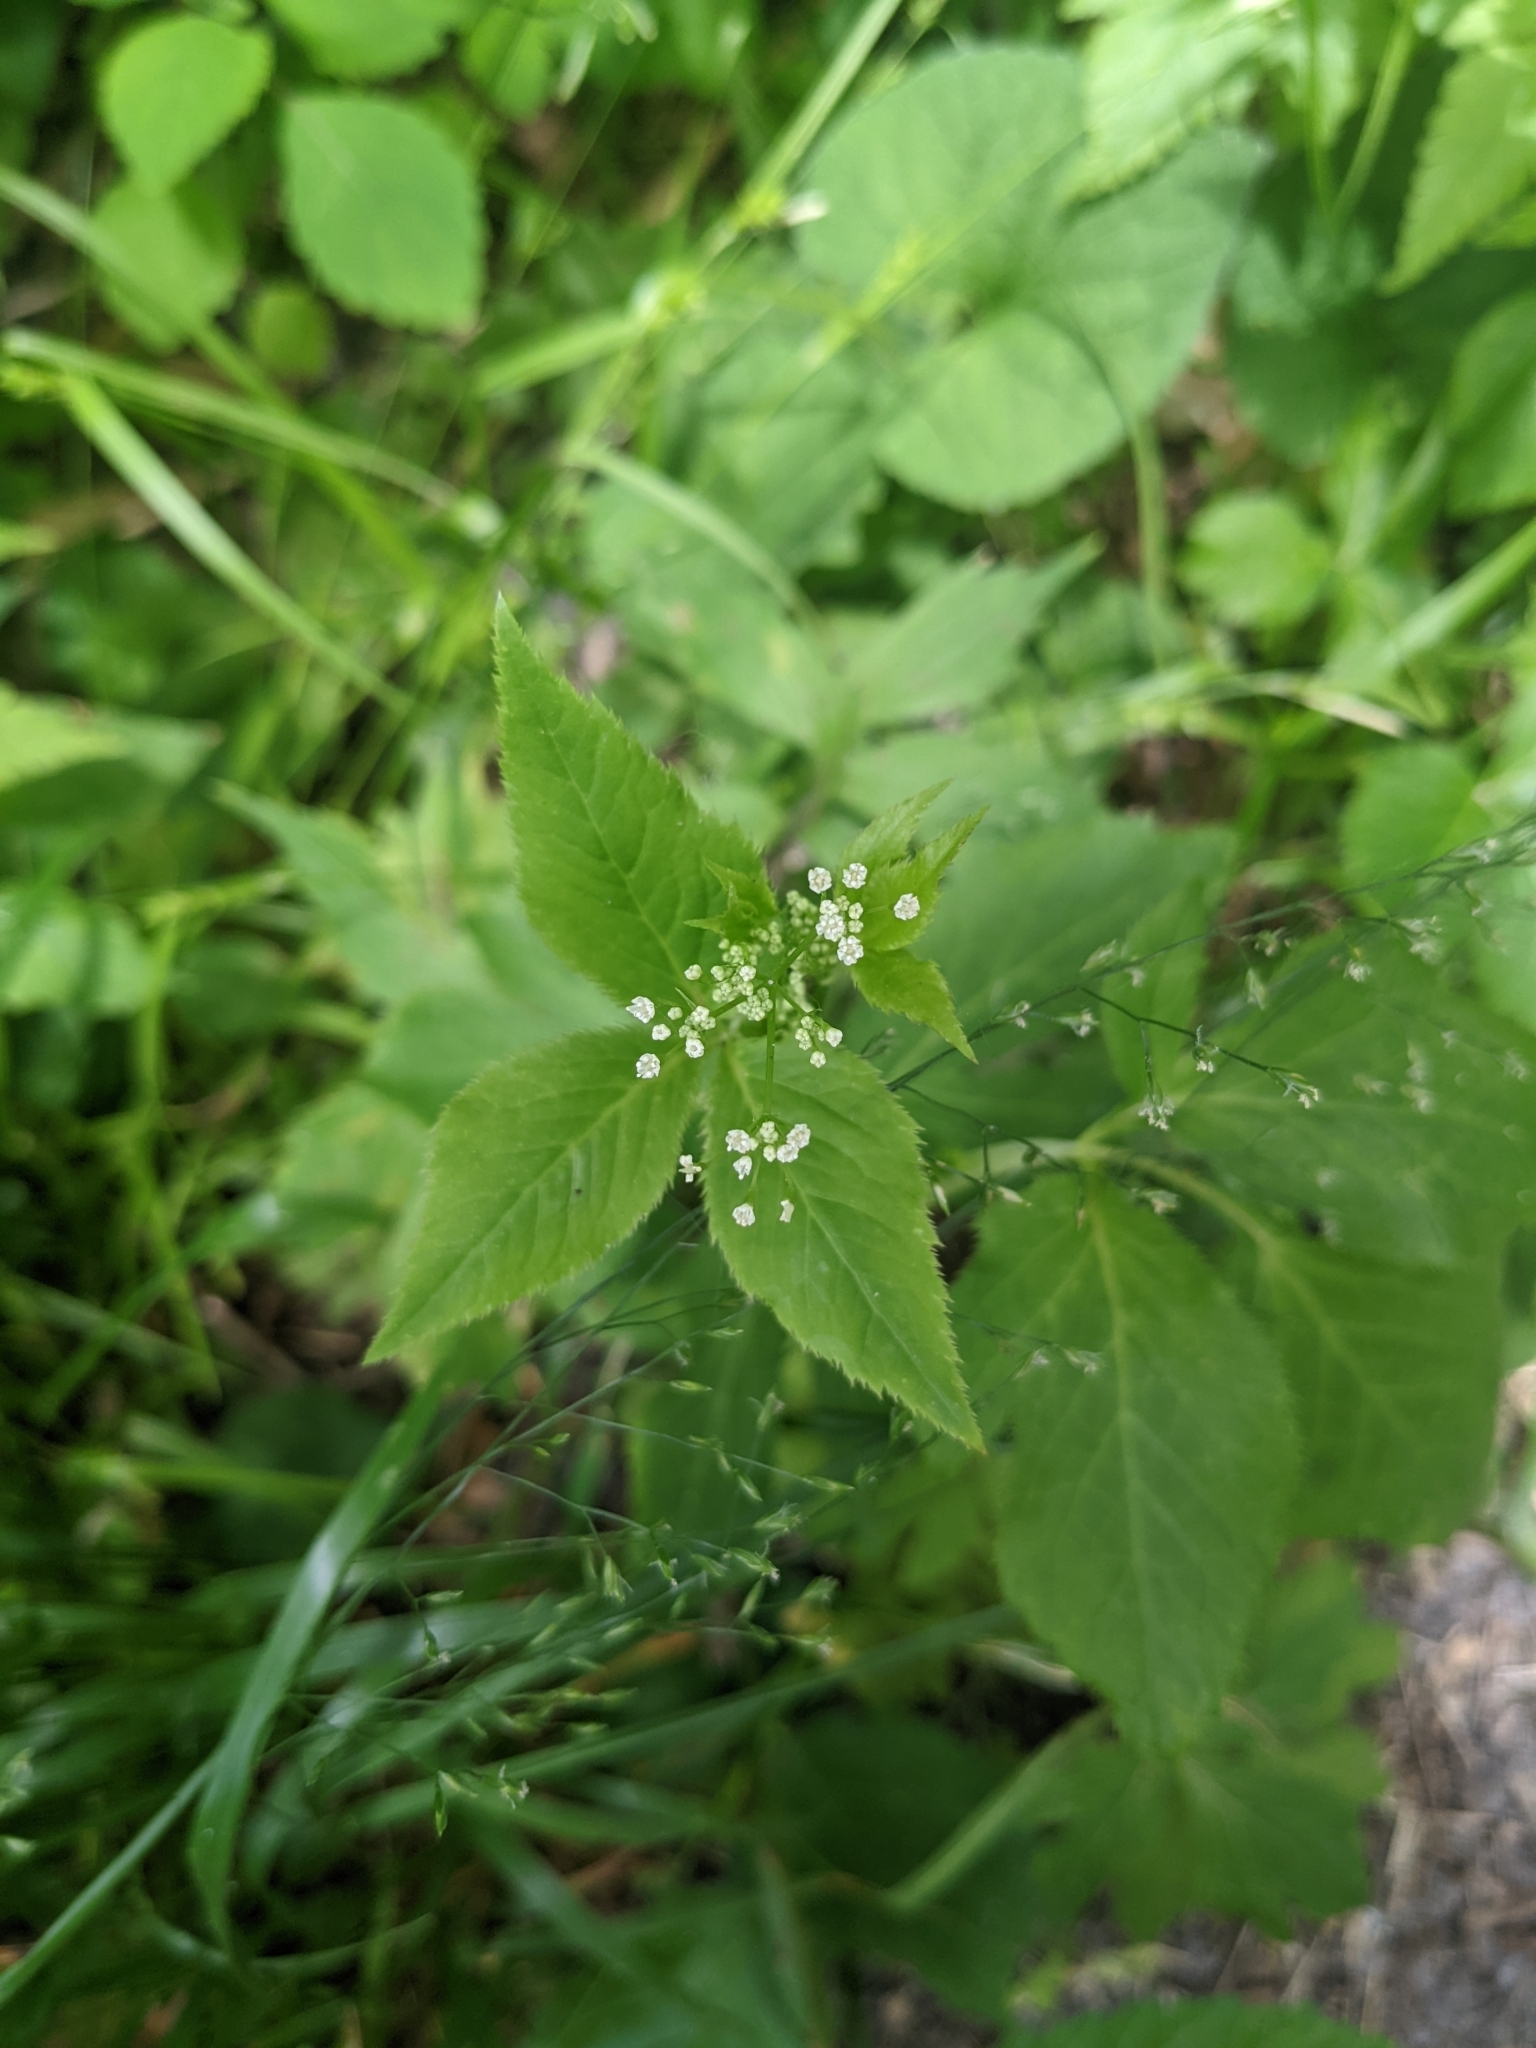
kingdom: Plantae
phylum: Tracheophyta
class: Magnoliopsida
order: Apiales
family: Apiaceae
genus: Cryptotaenia
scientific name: Cryptotaenia canadensis
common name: Honewort
